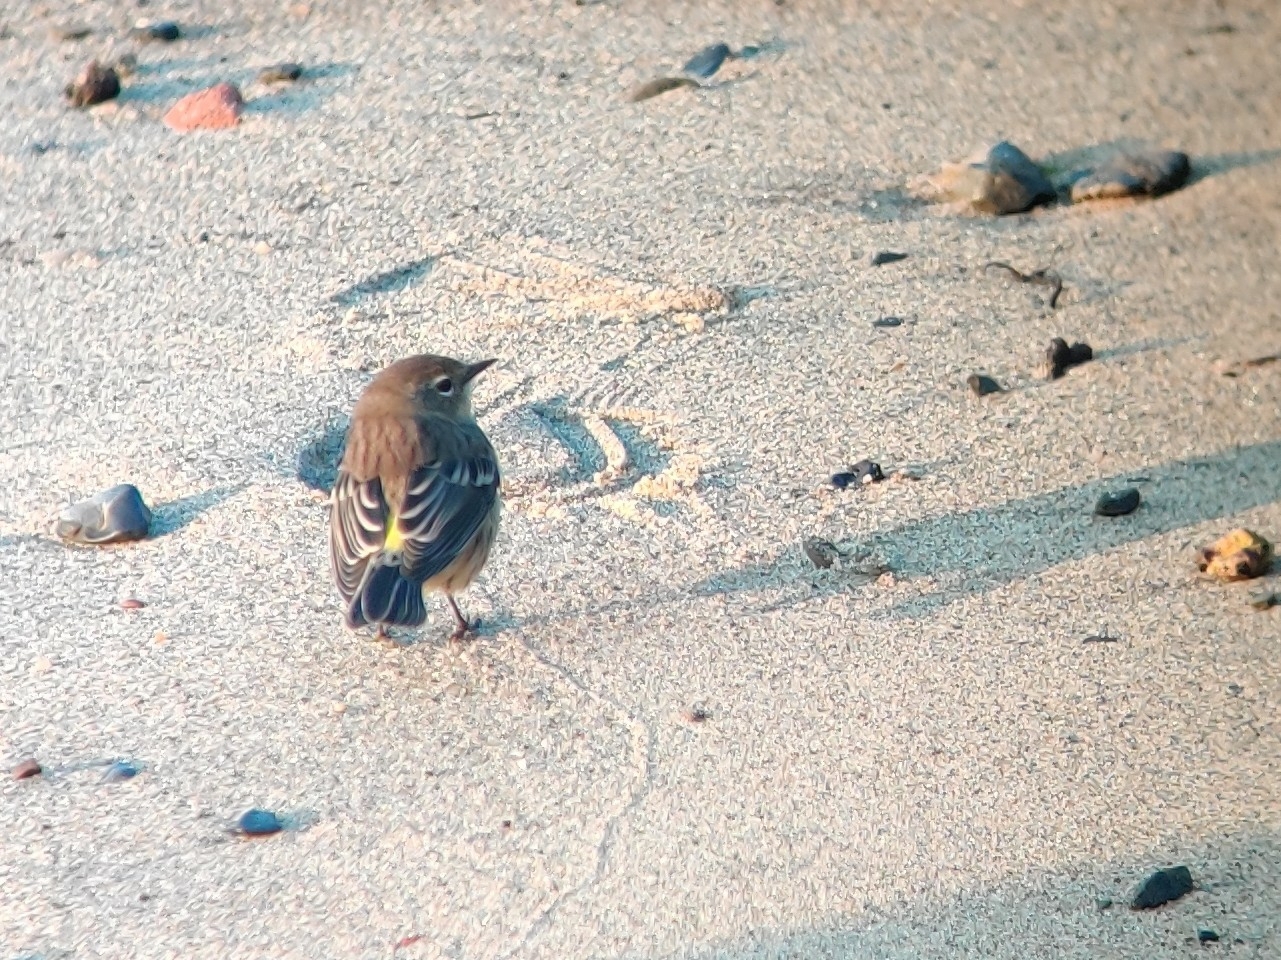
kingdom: Animalia
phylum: Chordata
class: Aves
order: Passeriformes
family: Parulidae
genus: Setophaga
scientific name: Setophaga coronata
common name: Myrtle warbler
